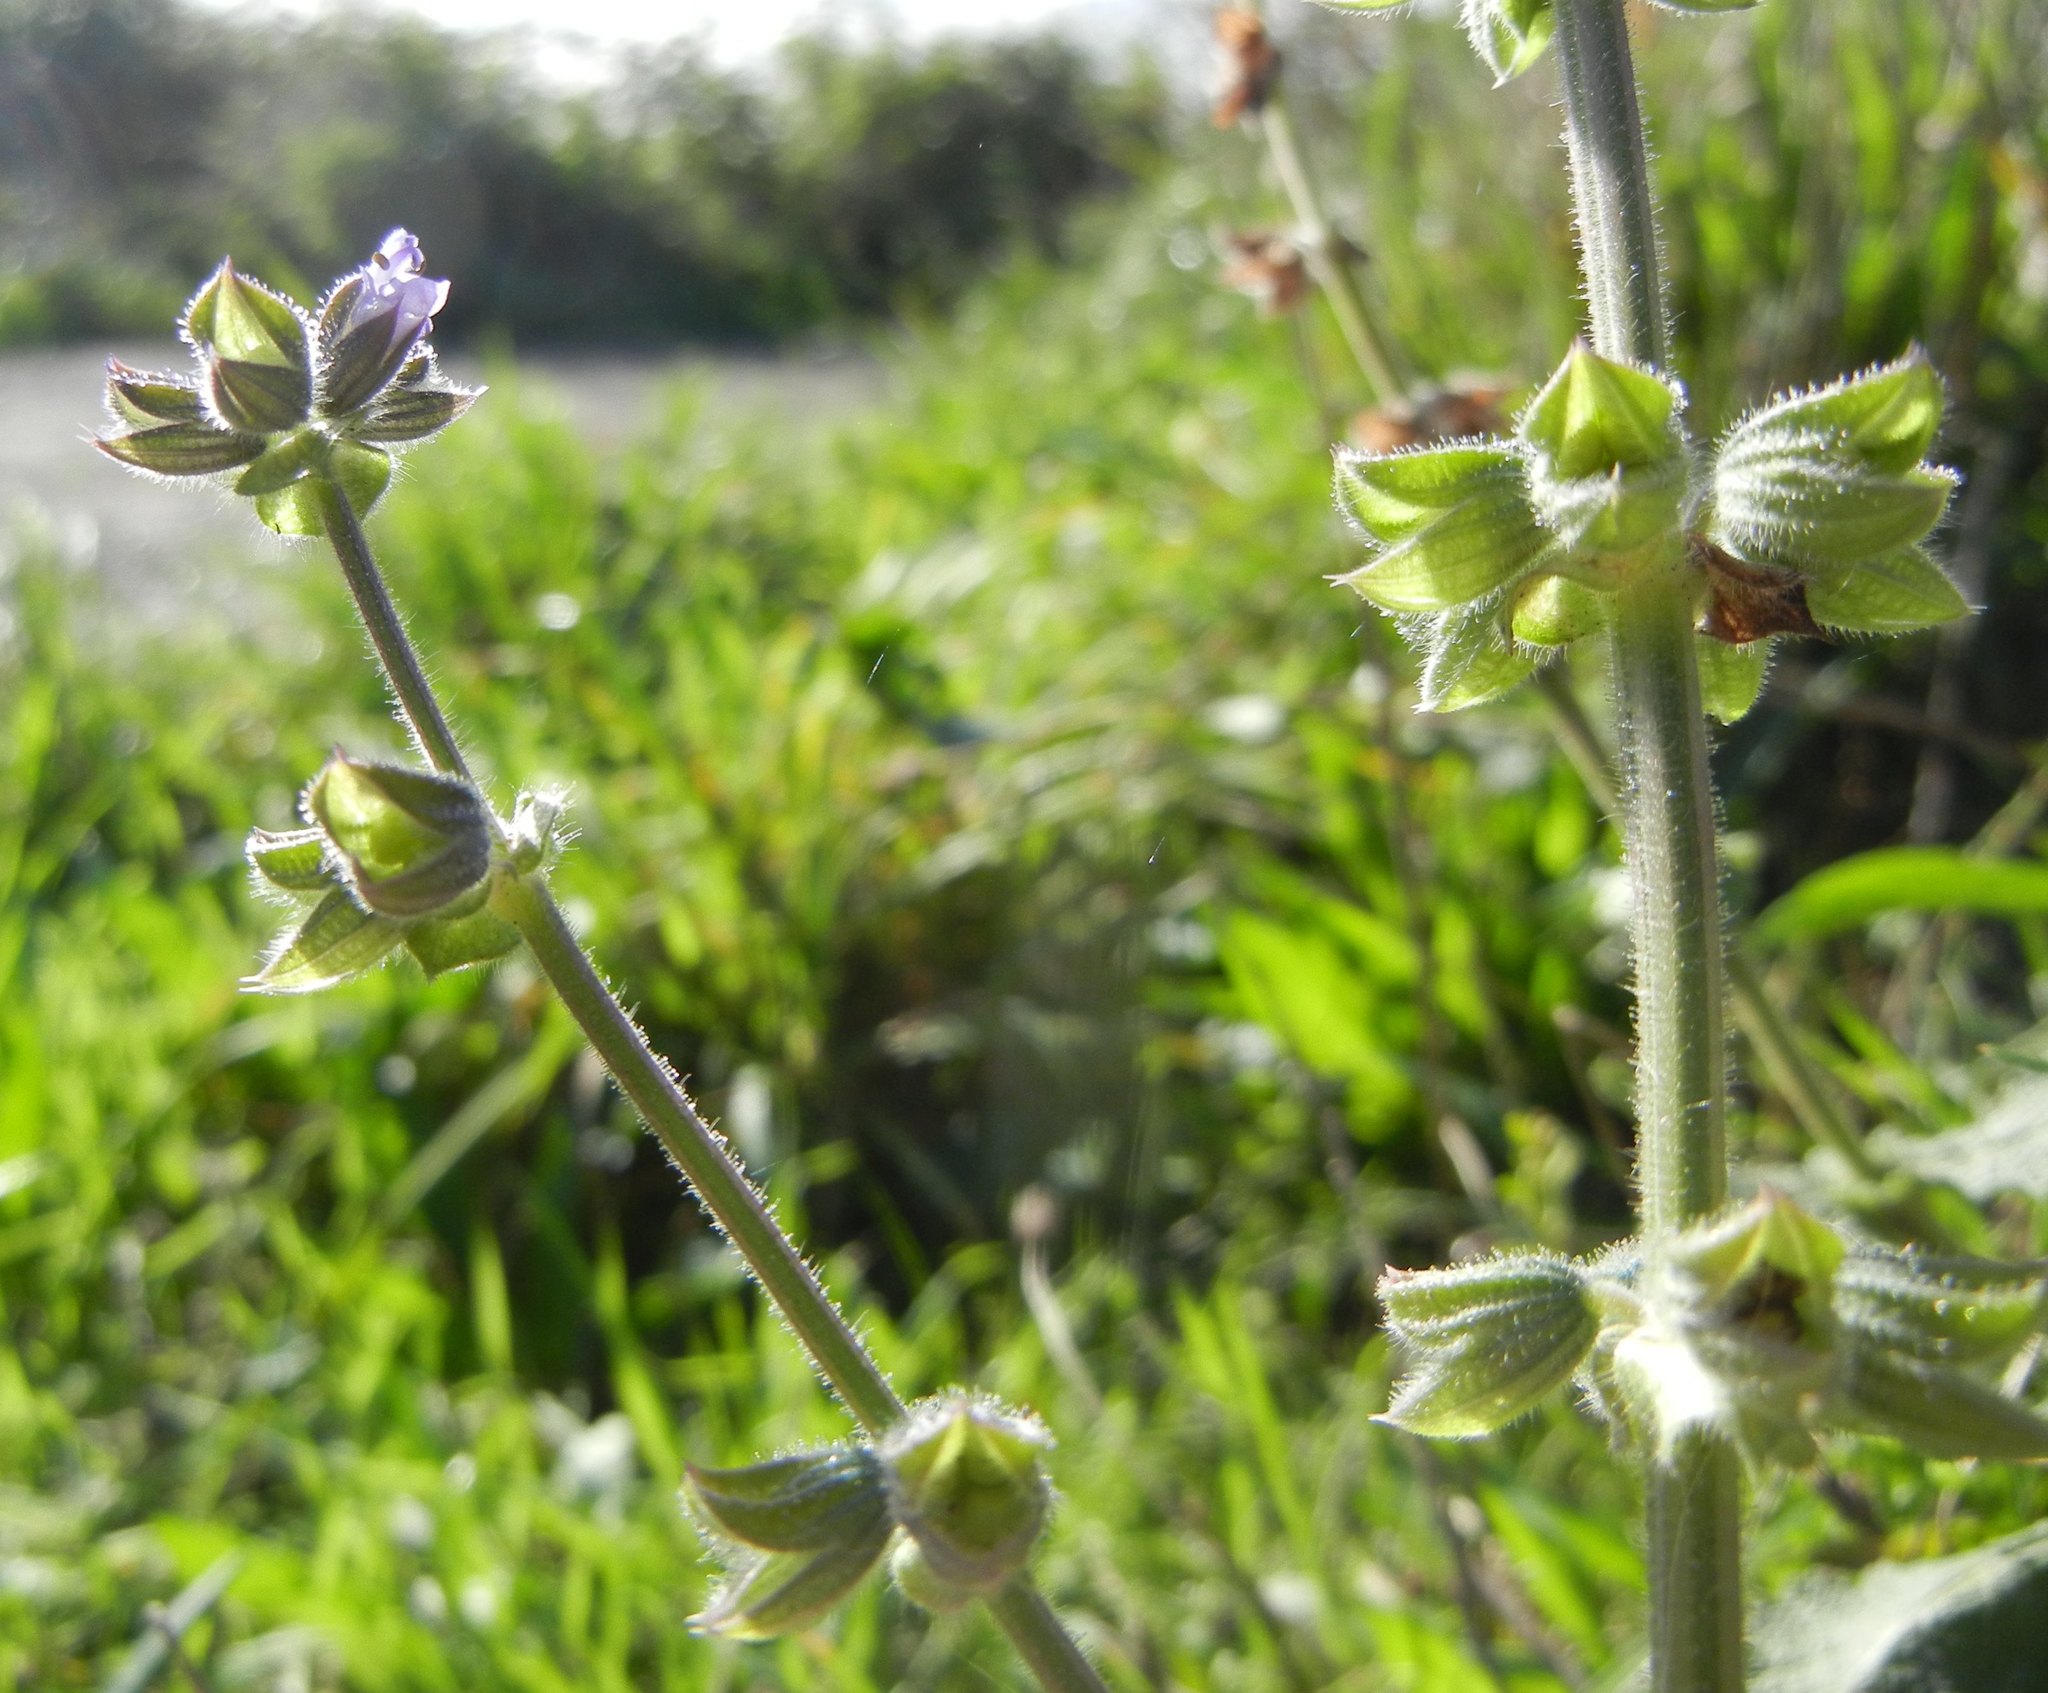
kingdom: Plantae
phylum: Tracheophyta
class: Magnoliopsida
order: Lamiales
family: Lamiaceae
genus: Salvia
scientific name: Salvia verbenaca
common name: Wild clary
